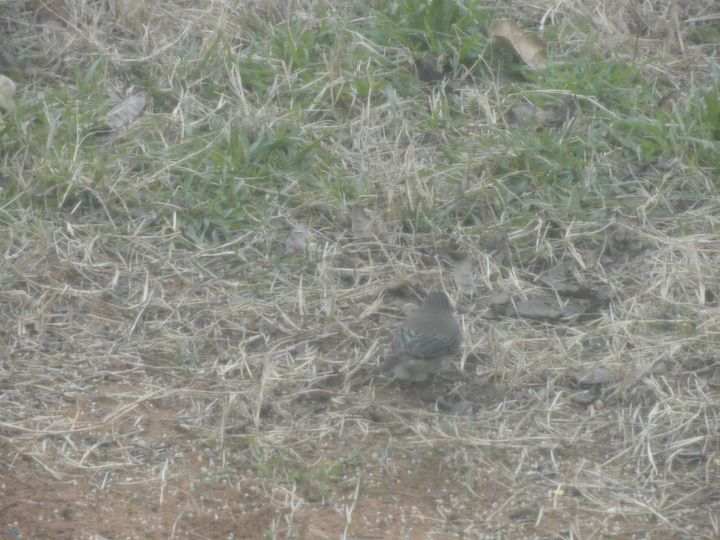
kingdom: Animalia
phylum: Chordata
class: Aves
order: Passeriformes
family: Passerellidae
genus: Junco
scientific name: Junco hyemalis
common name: Dark-eyed junco
